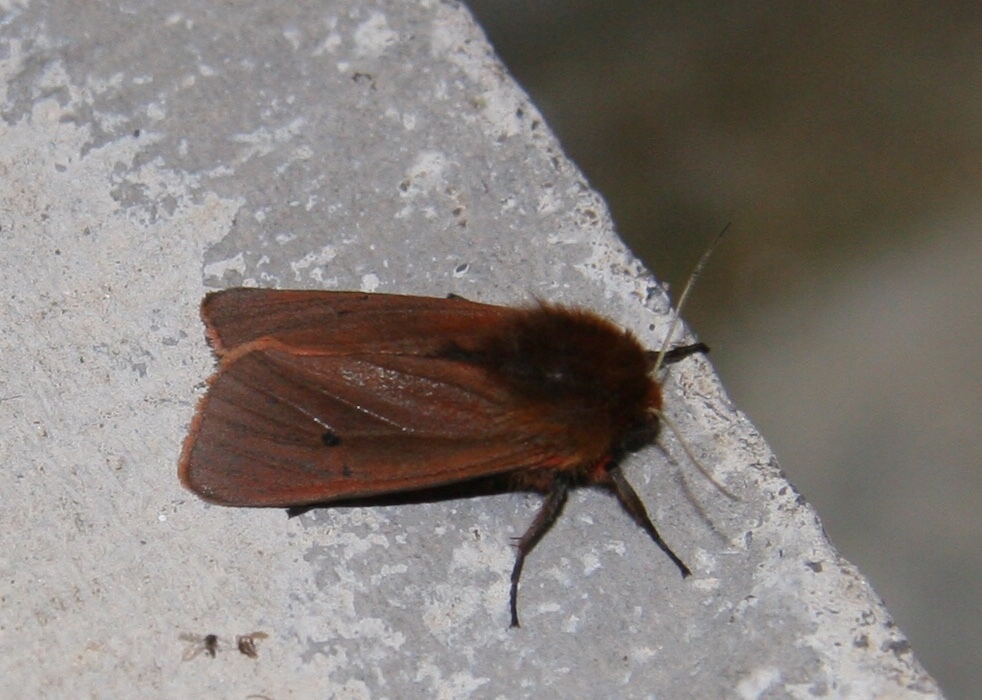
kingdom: Animalia
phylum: Arthropoda
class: Insecta
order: Lepidoptera
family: Erebidae
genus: Phragmatobia
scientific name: Phragmatobia fuliginosa
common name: Ruby tiger
